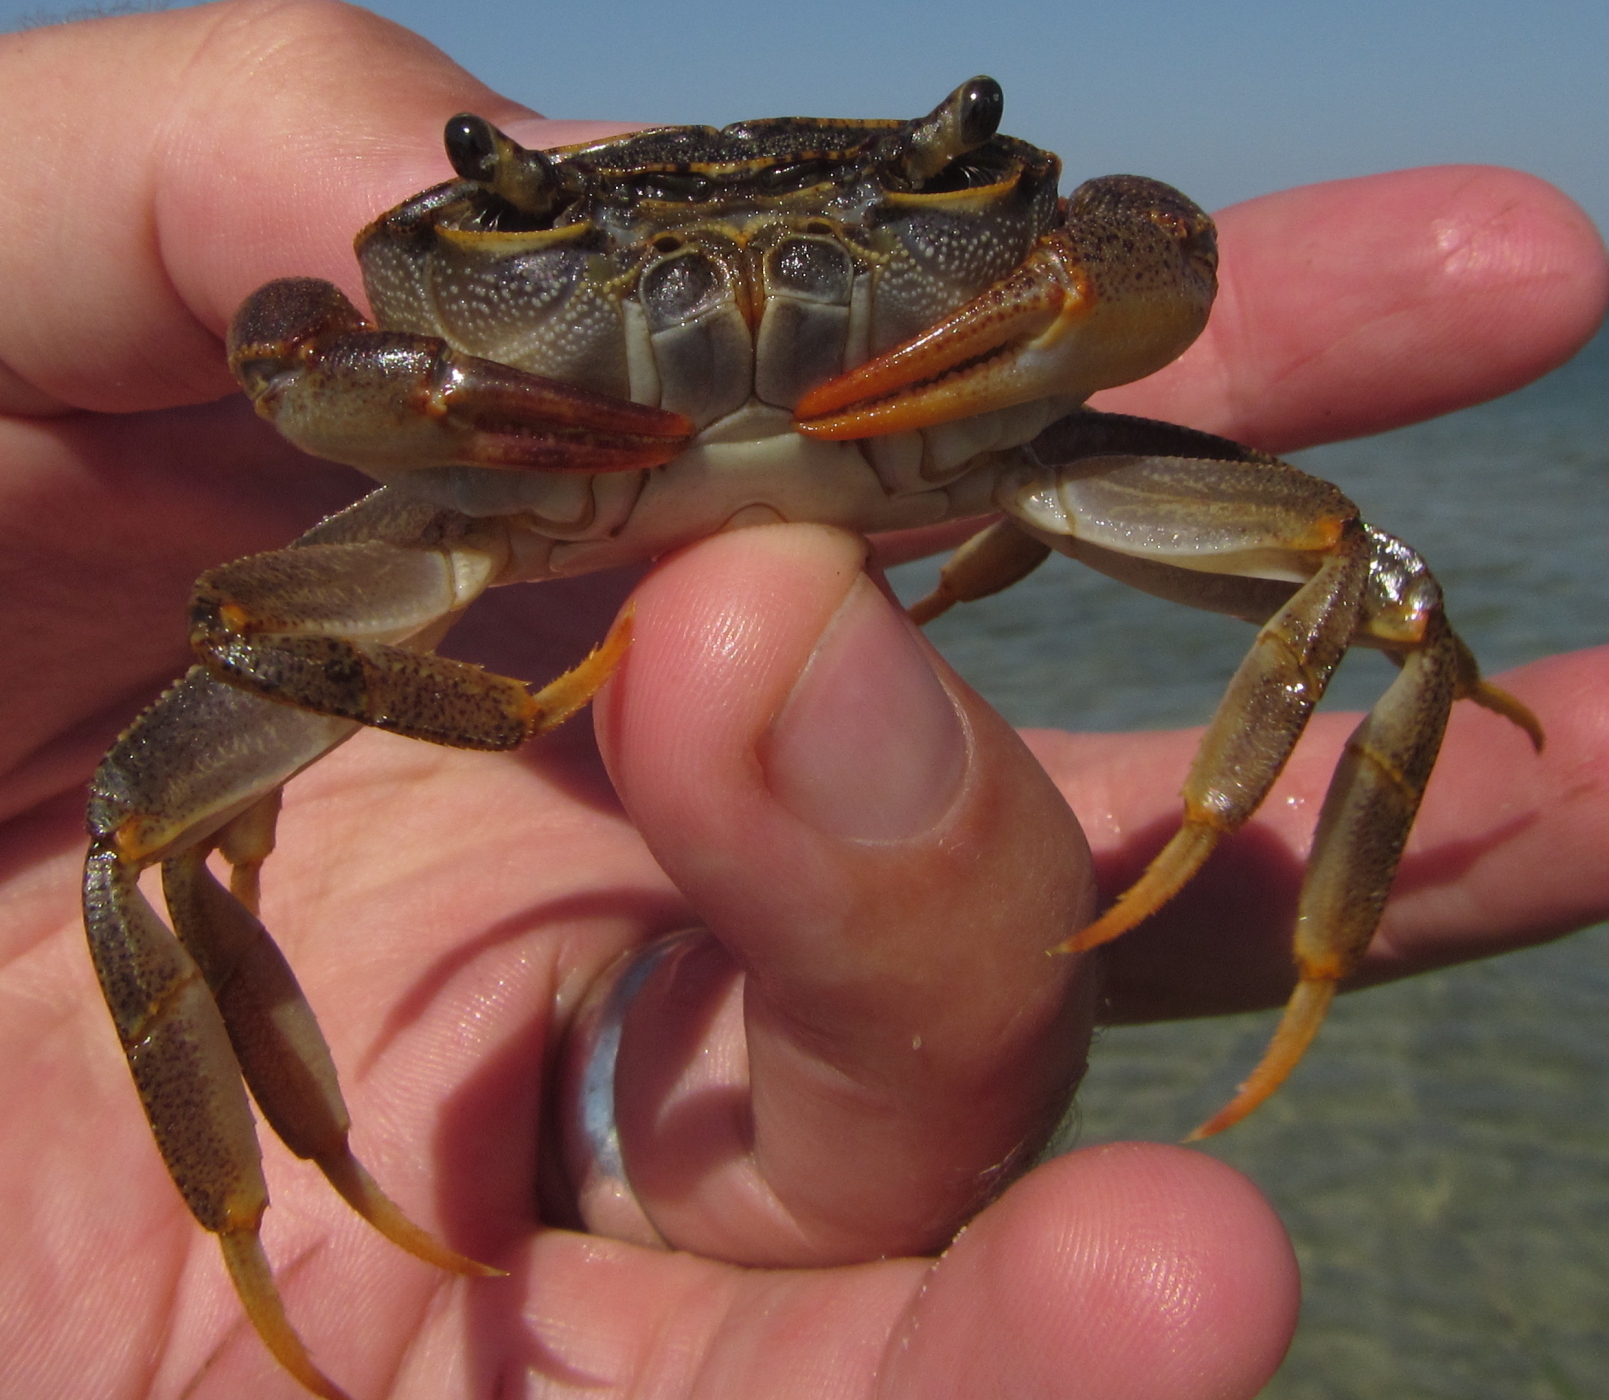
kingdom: Animalia
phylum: Arthropoda
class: Malacostraca
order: Decapoda
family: Potamonautidae
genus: Potamonautes
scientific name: Potamonautes sidneyi
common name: Natal river crab
